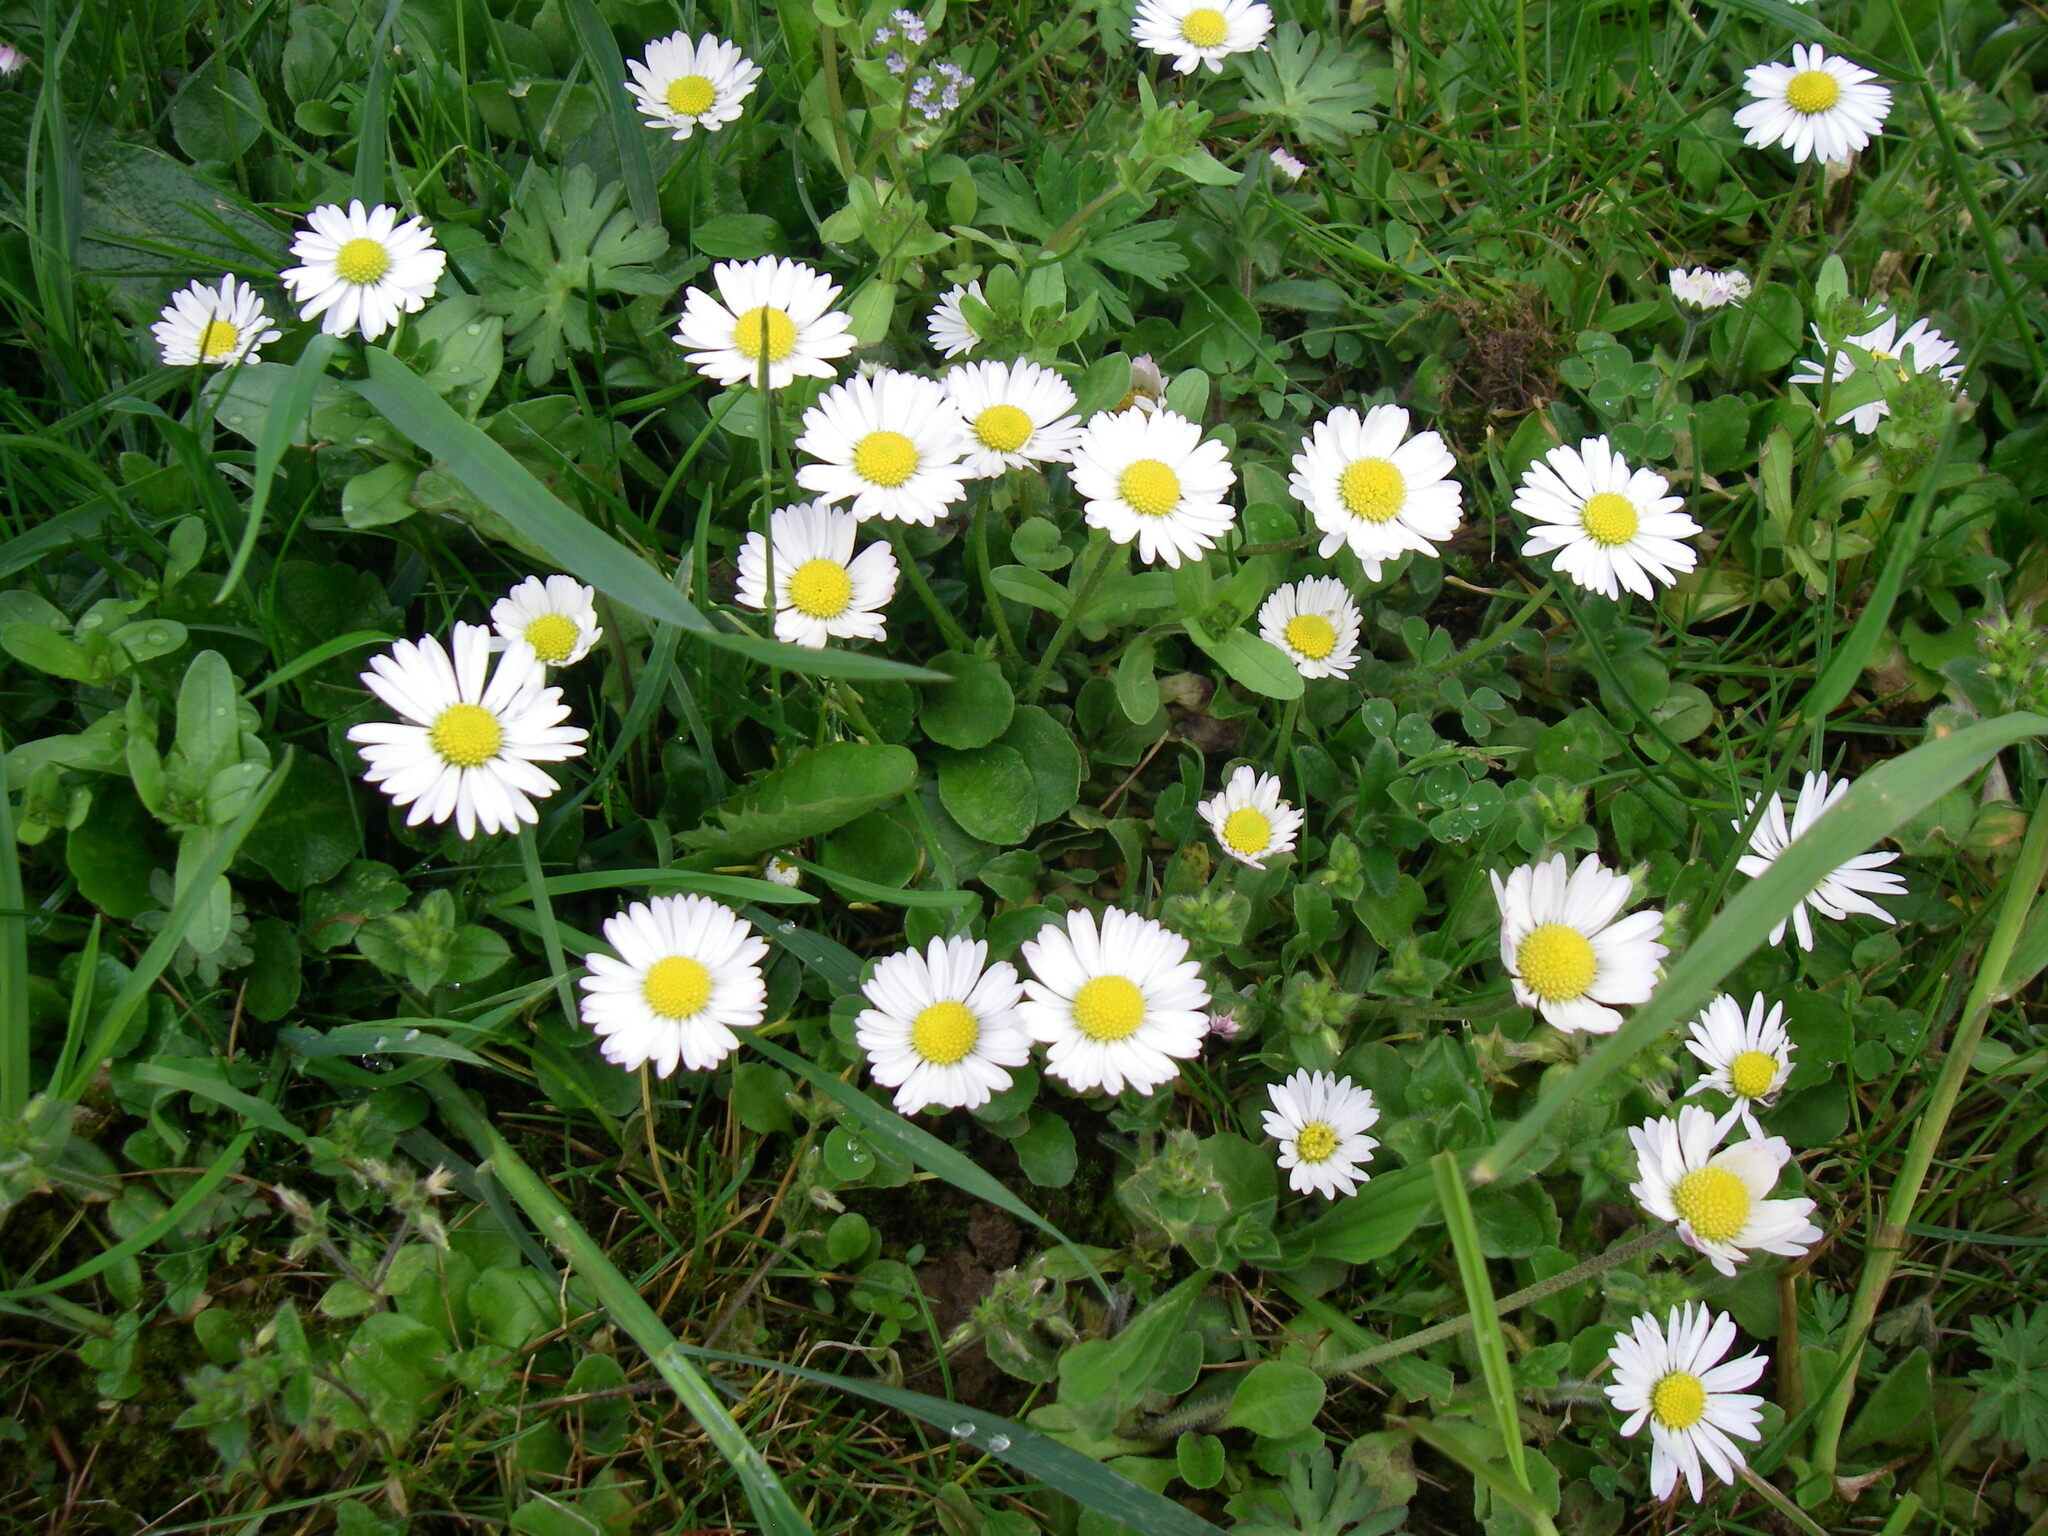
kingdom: Plantae
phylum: Tracheophyta
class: Magnoliopsida
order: Asterales
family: Asteraceae
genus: Bellis
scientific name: Bellis perennis
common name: Lawndaisy
